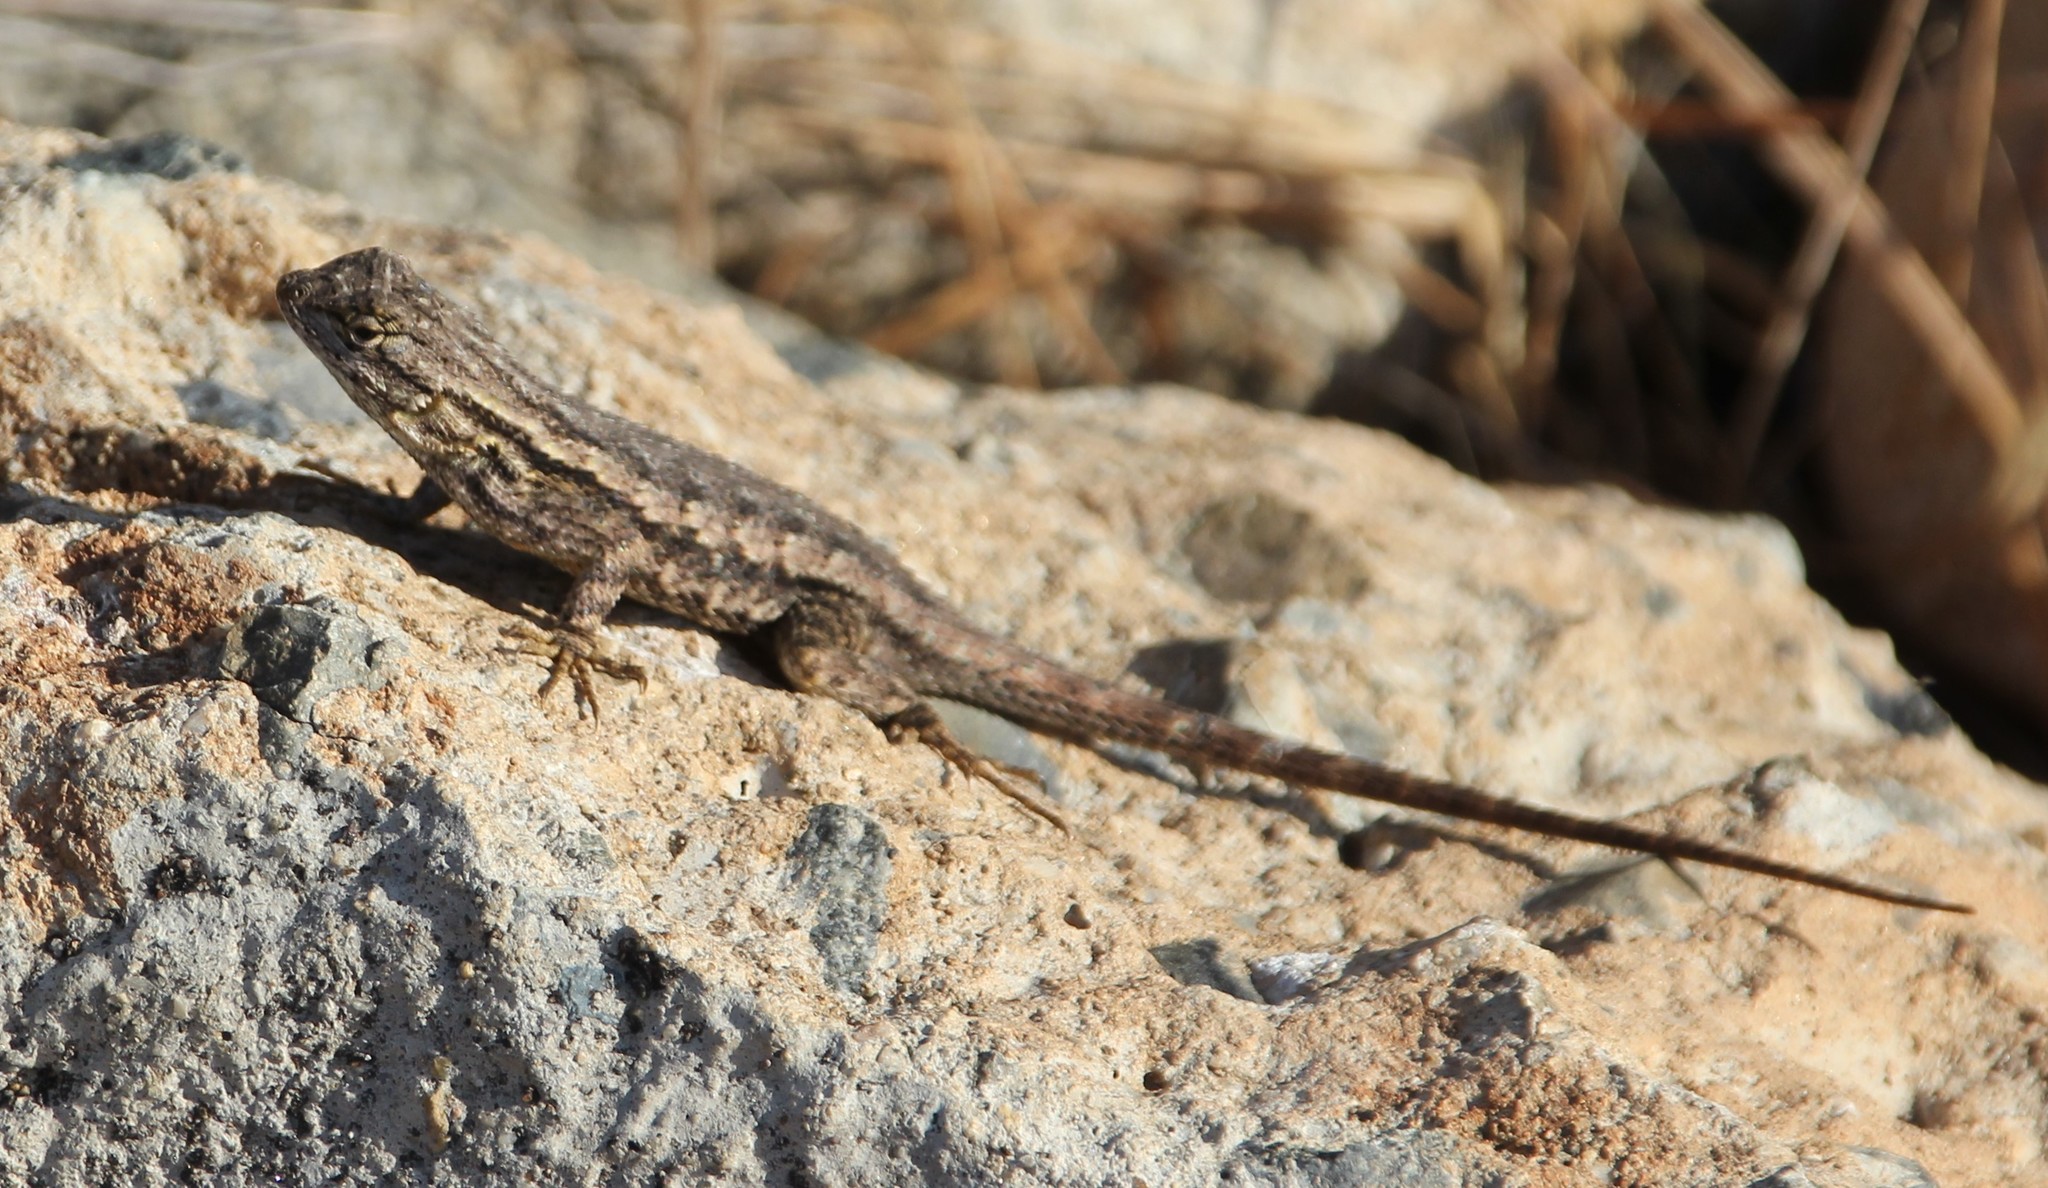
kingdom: Animalia
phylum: Chordata
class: Squamata
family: Phrynosomatidae
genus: Sceloporus
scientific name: Sceloporus occidentalis
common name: Western fence lizard
